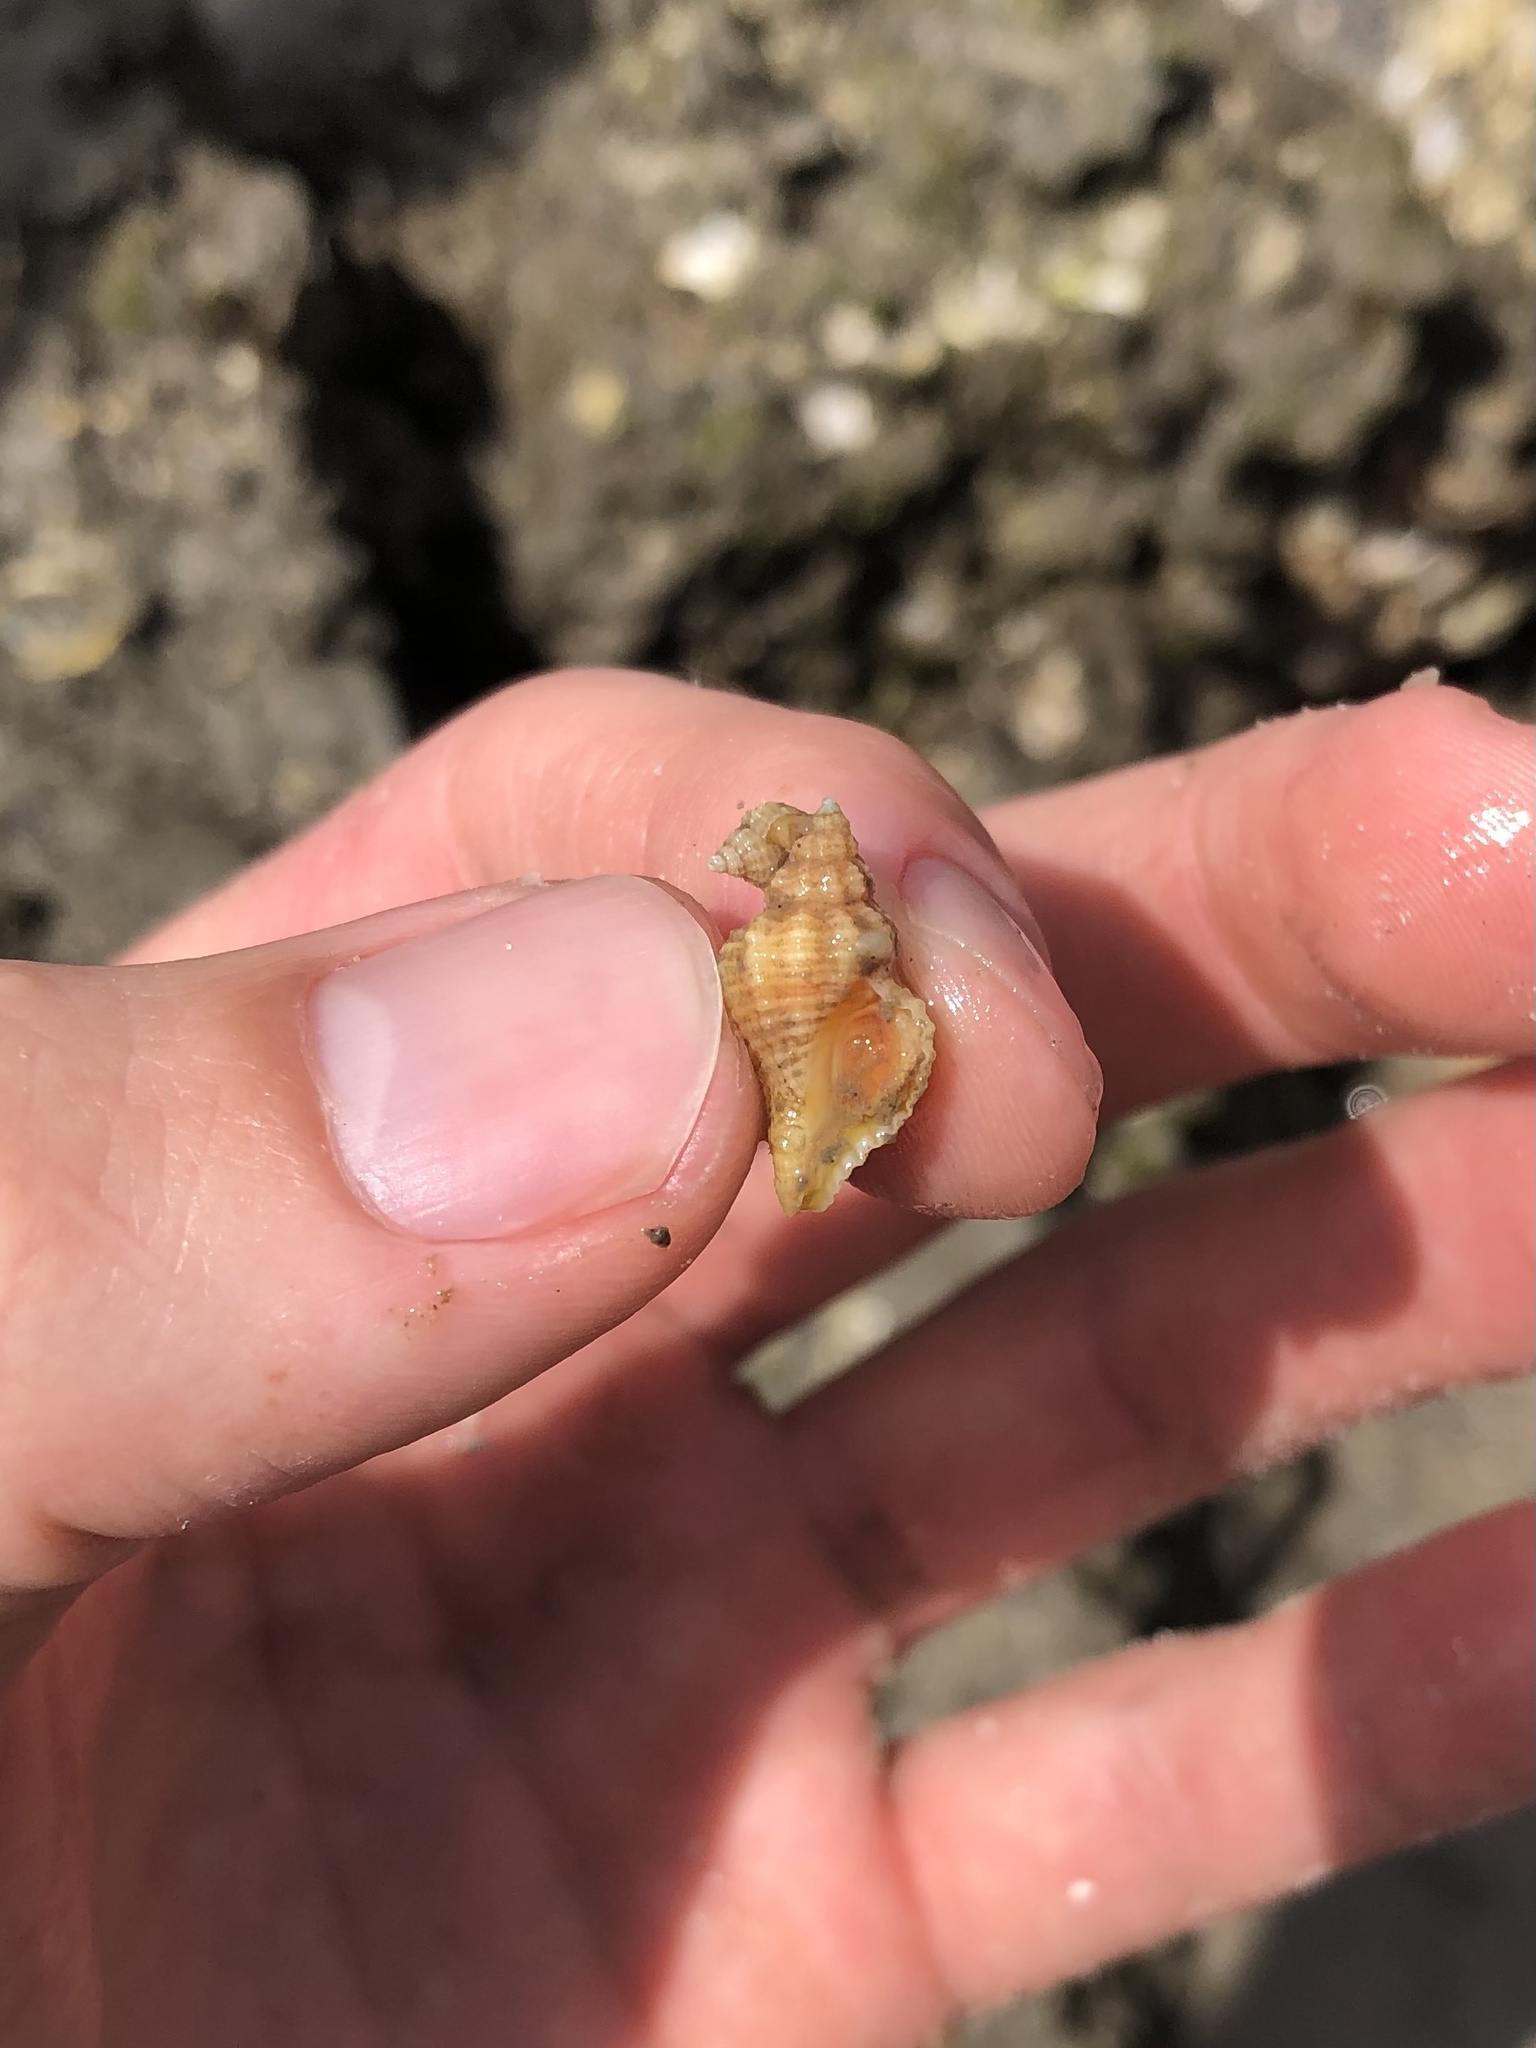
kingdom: Animalia
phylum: Mollusca
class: Gastropoda
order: Neogastropoda
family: Muricidae
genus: Urosalpinx
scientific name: Urosalpinx cinerea
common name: American sting winkle
